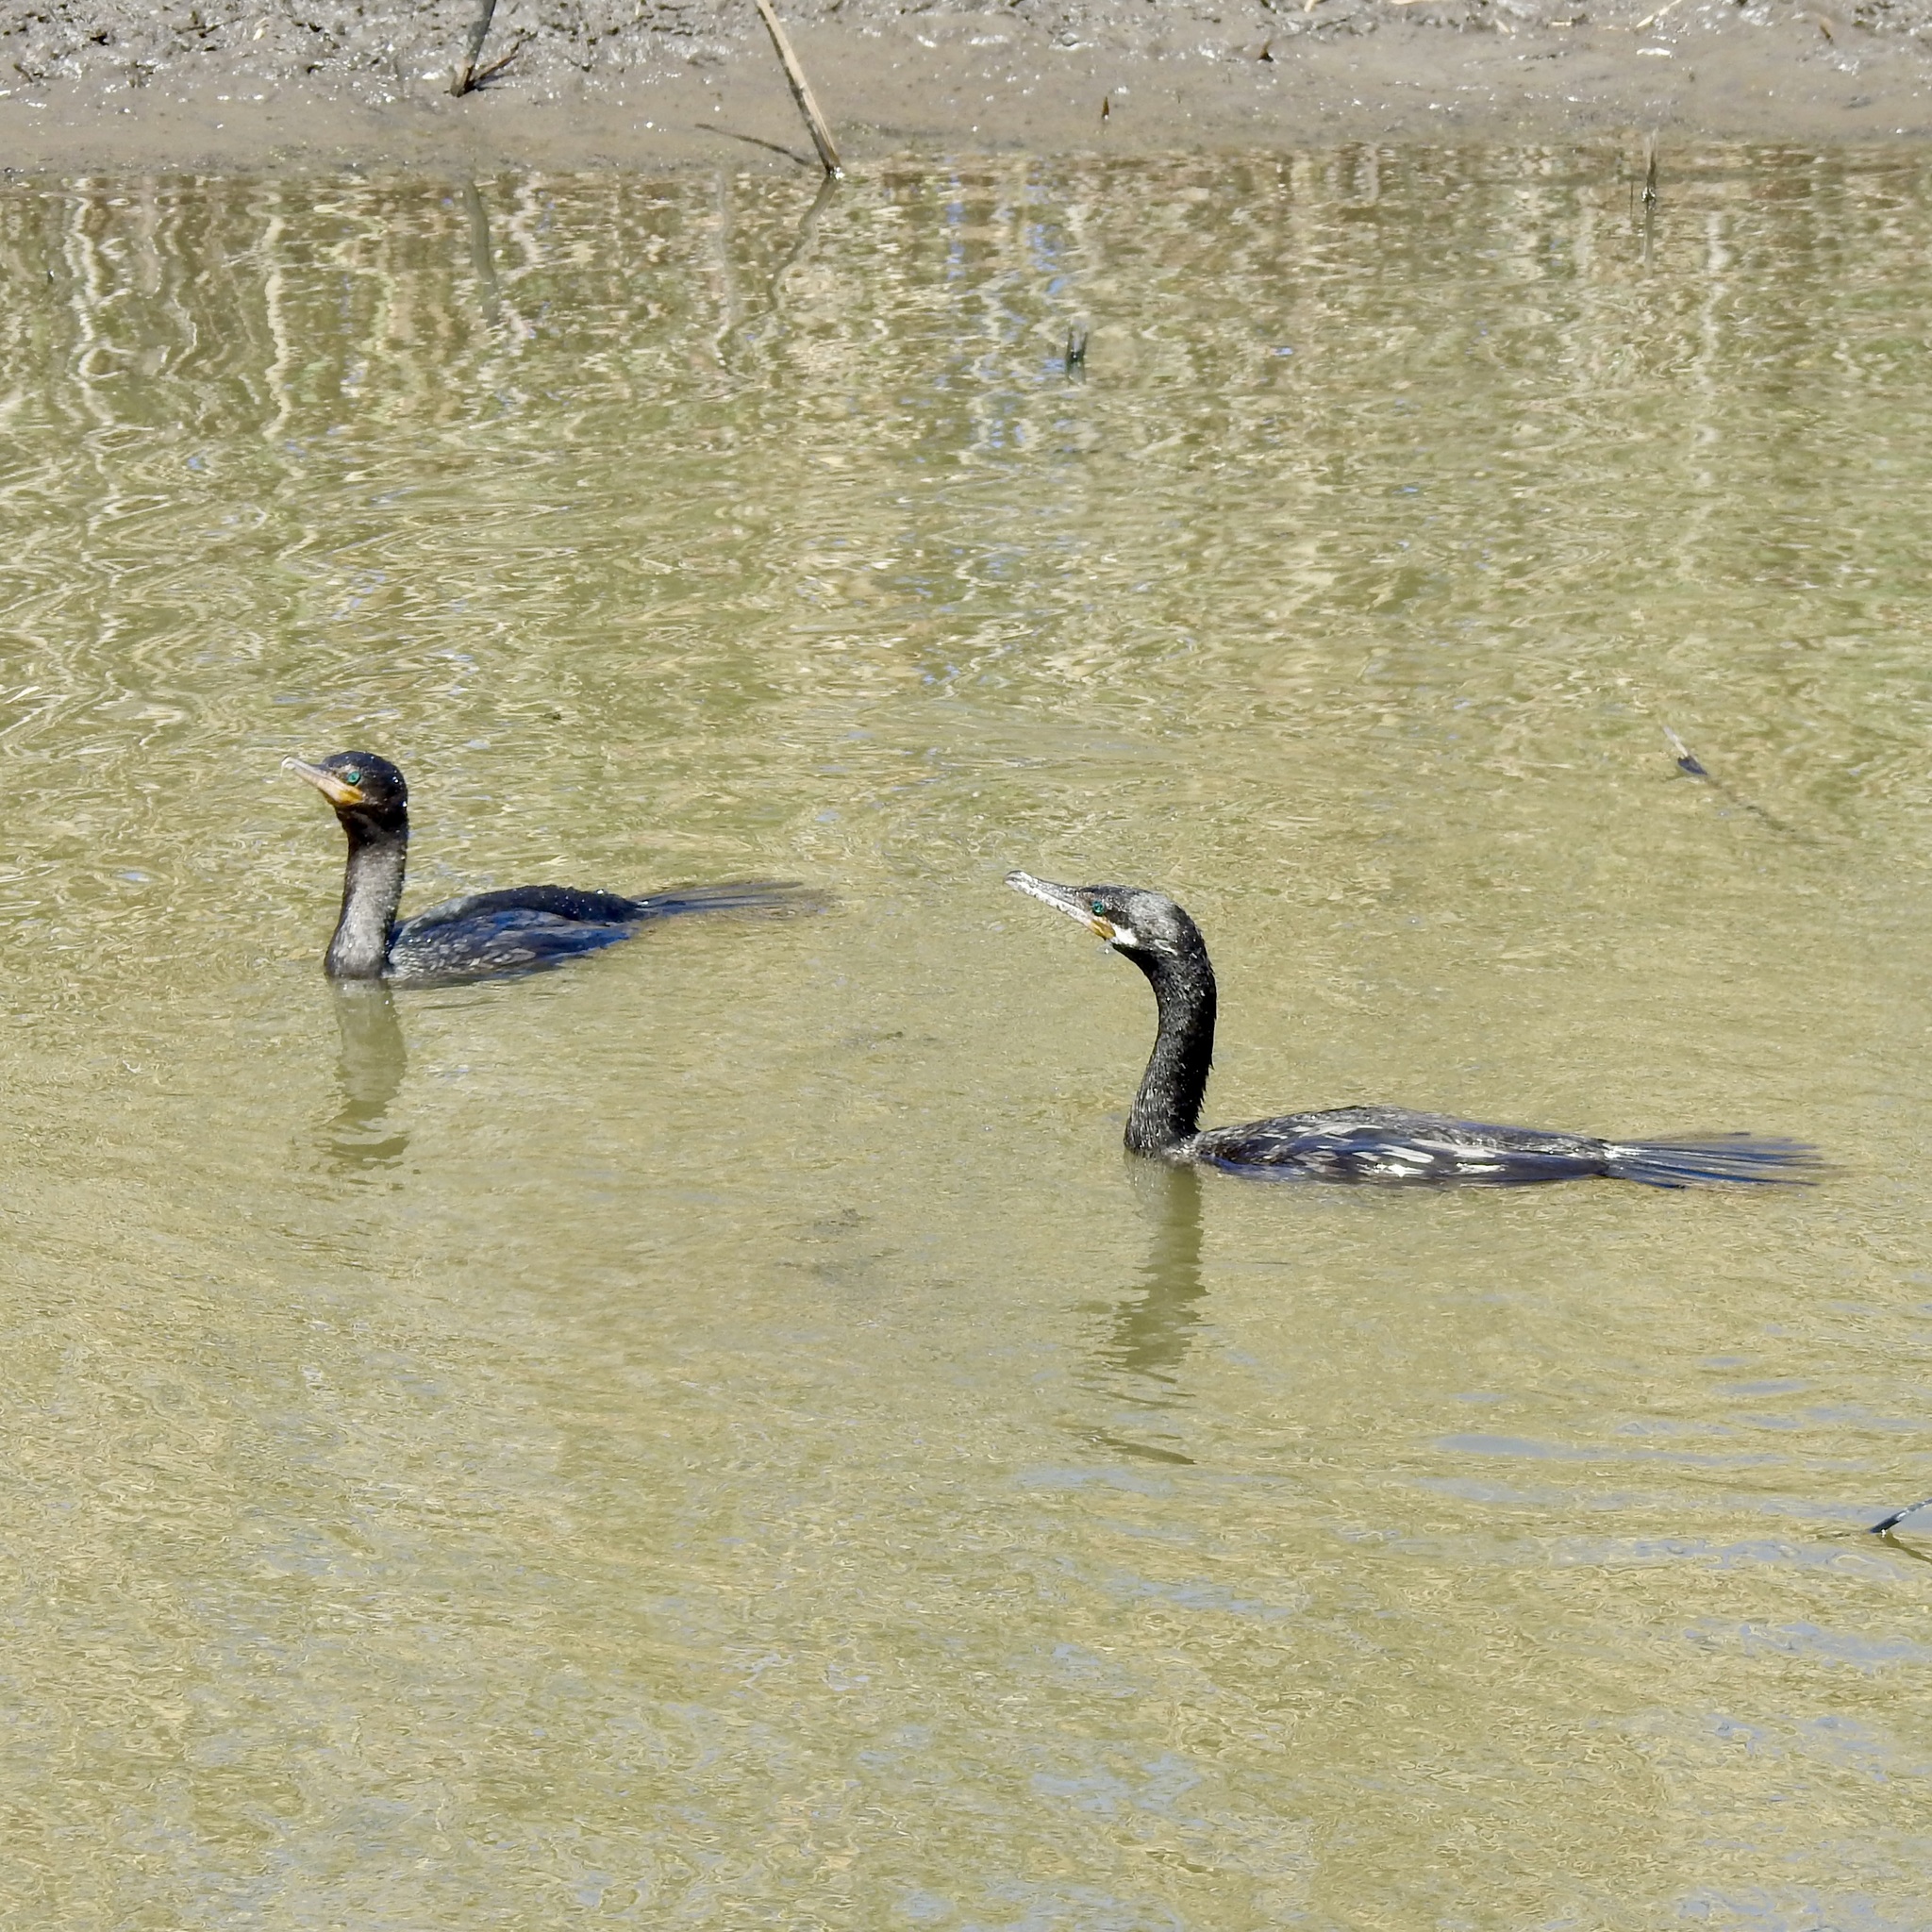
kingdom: Animalia
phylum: Chordata
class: Aves
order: Suliformes
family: Phalacrocoracidae
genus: Phalacrocorax
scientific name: Phalacrocorax brasilianus
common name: Neotropic cormorant
